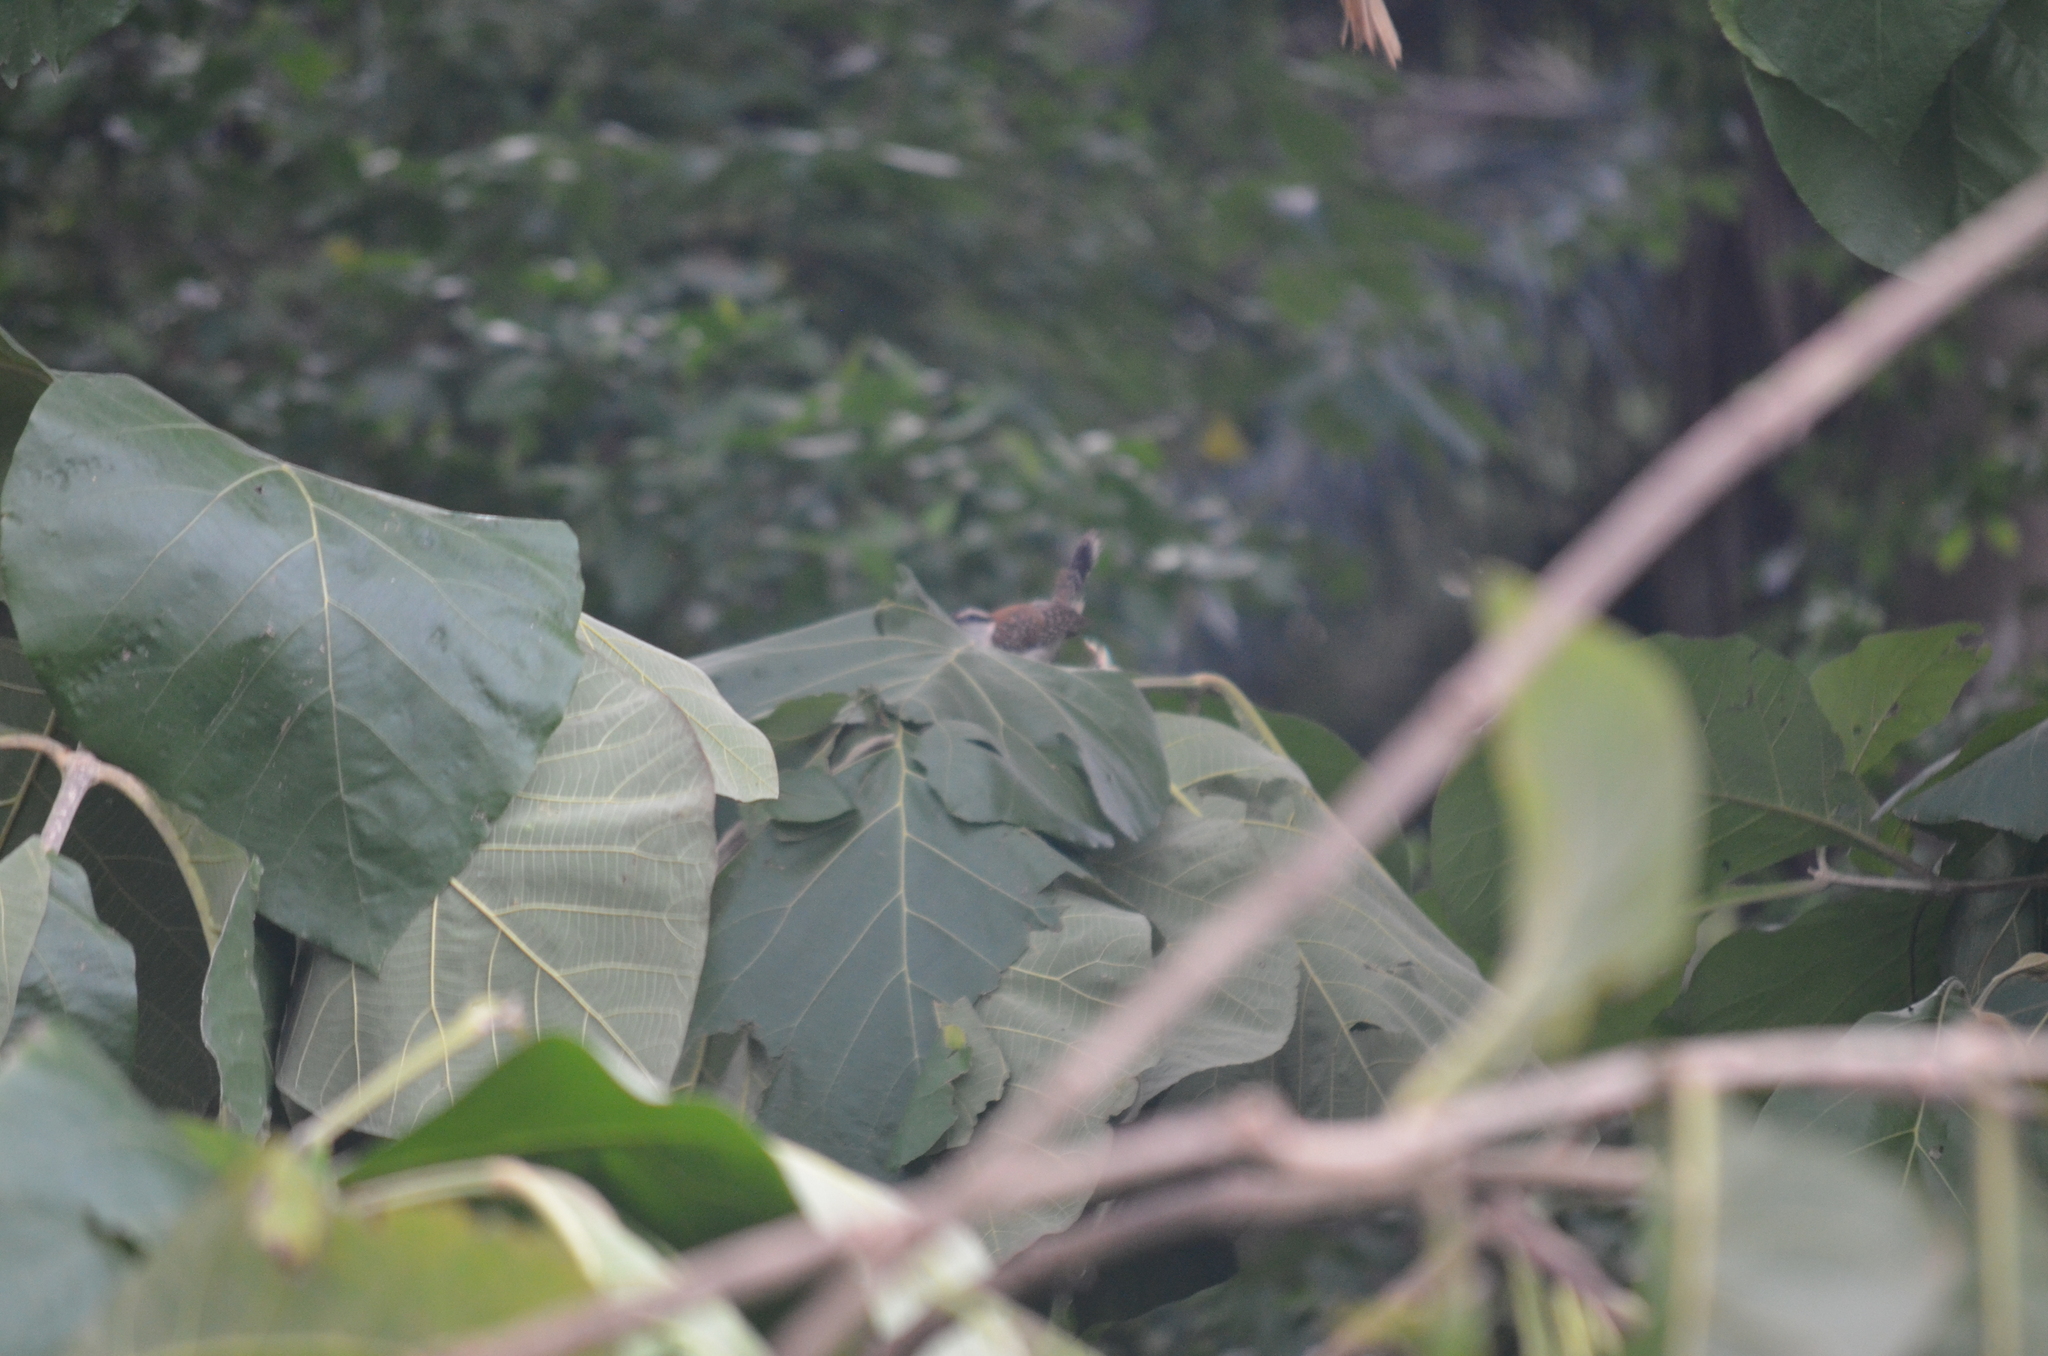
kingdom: Animalia
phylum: Chordata
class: Aves
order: Passeriformes
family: Troglodytidae
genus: Campylorhynchus
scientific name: Campylorhynchus rufinucha
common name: Rufous-naped wren
